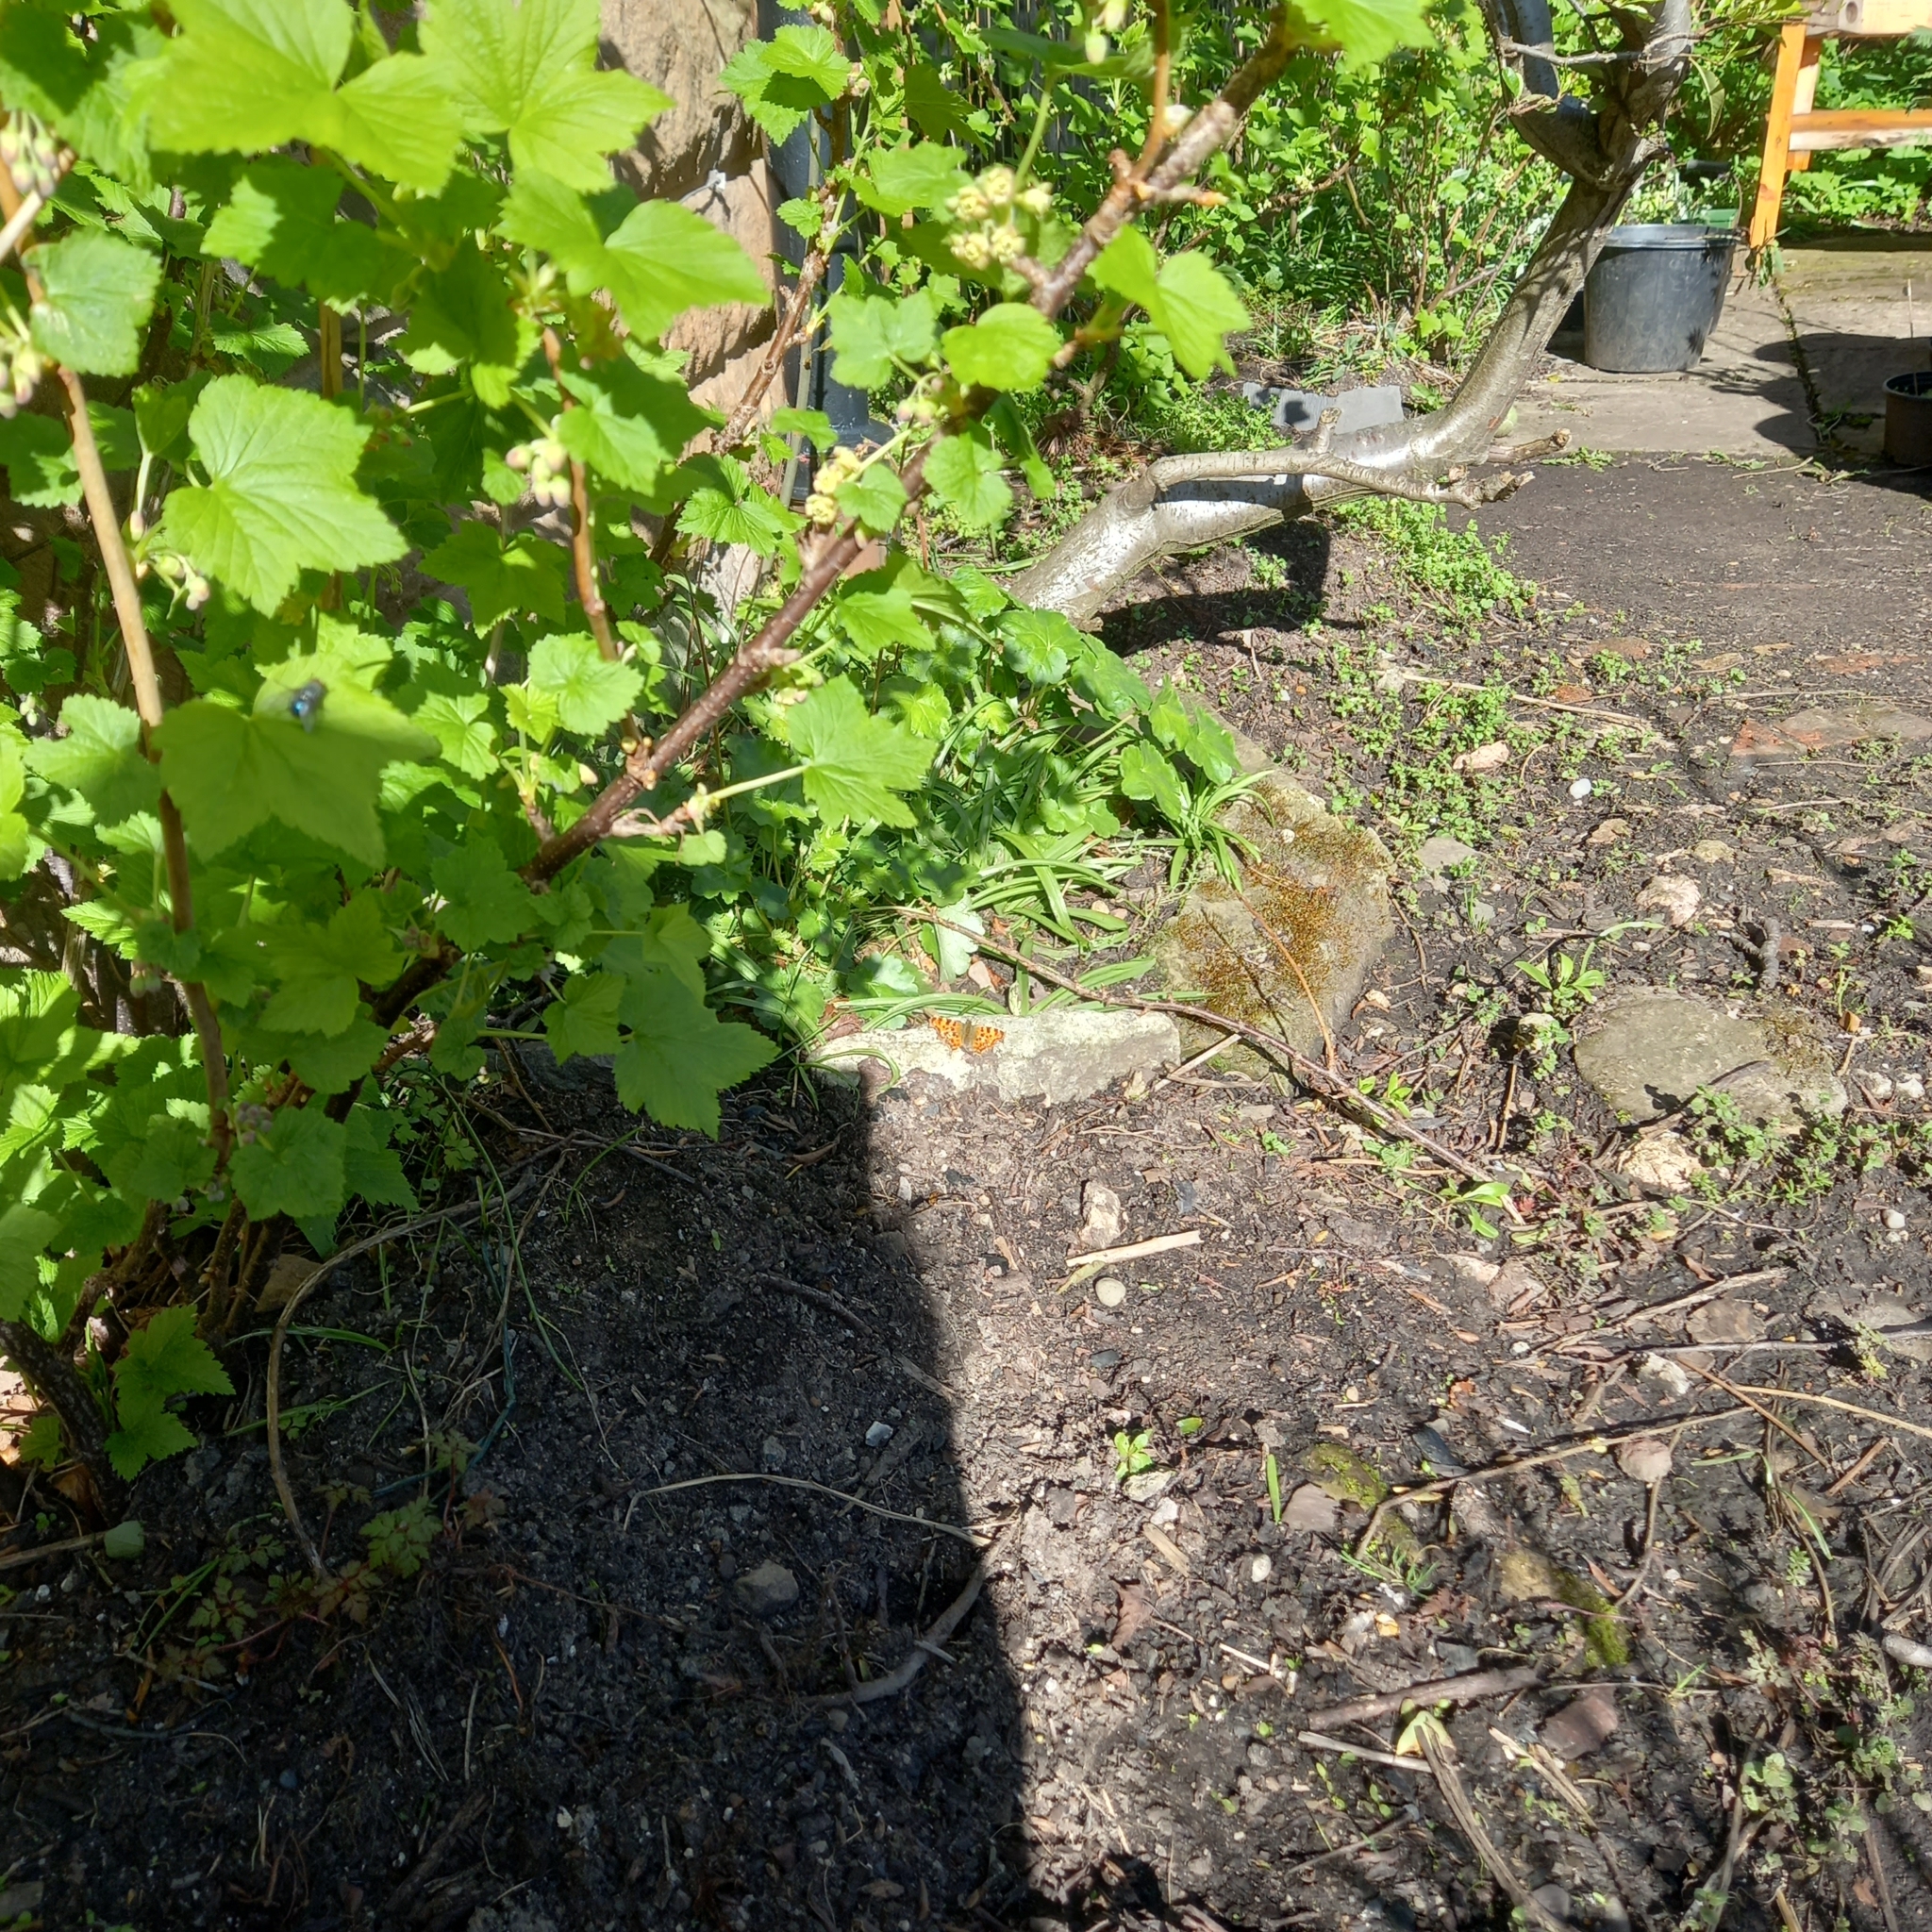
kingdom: Animalia
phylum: Arthropoda
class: Insecta
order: Lepidoptera
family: Nymphalidae
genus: Polygonia
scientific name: Polygonia c-album
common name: Comma
